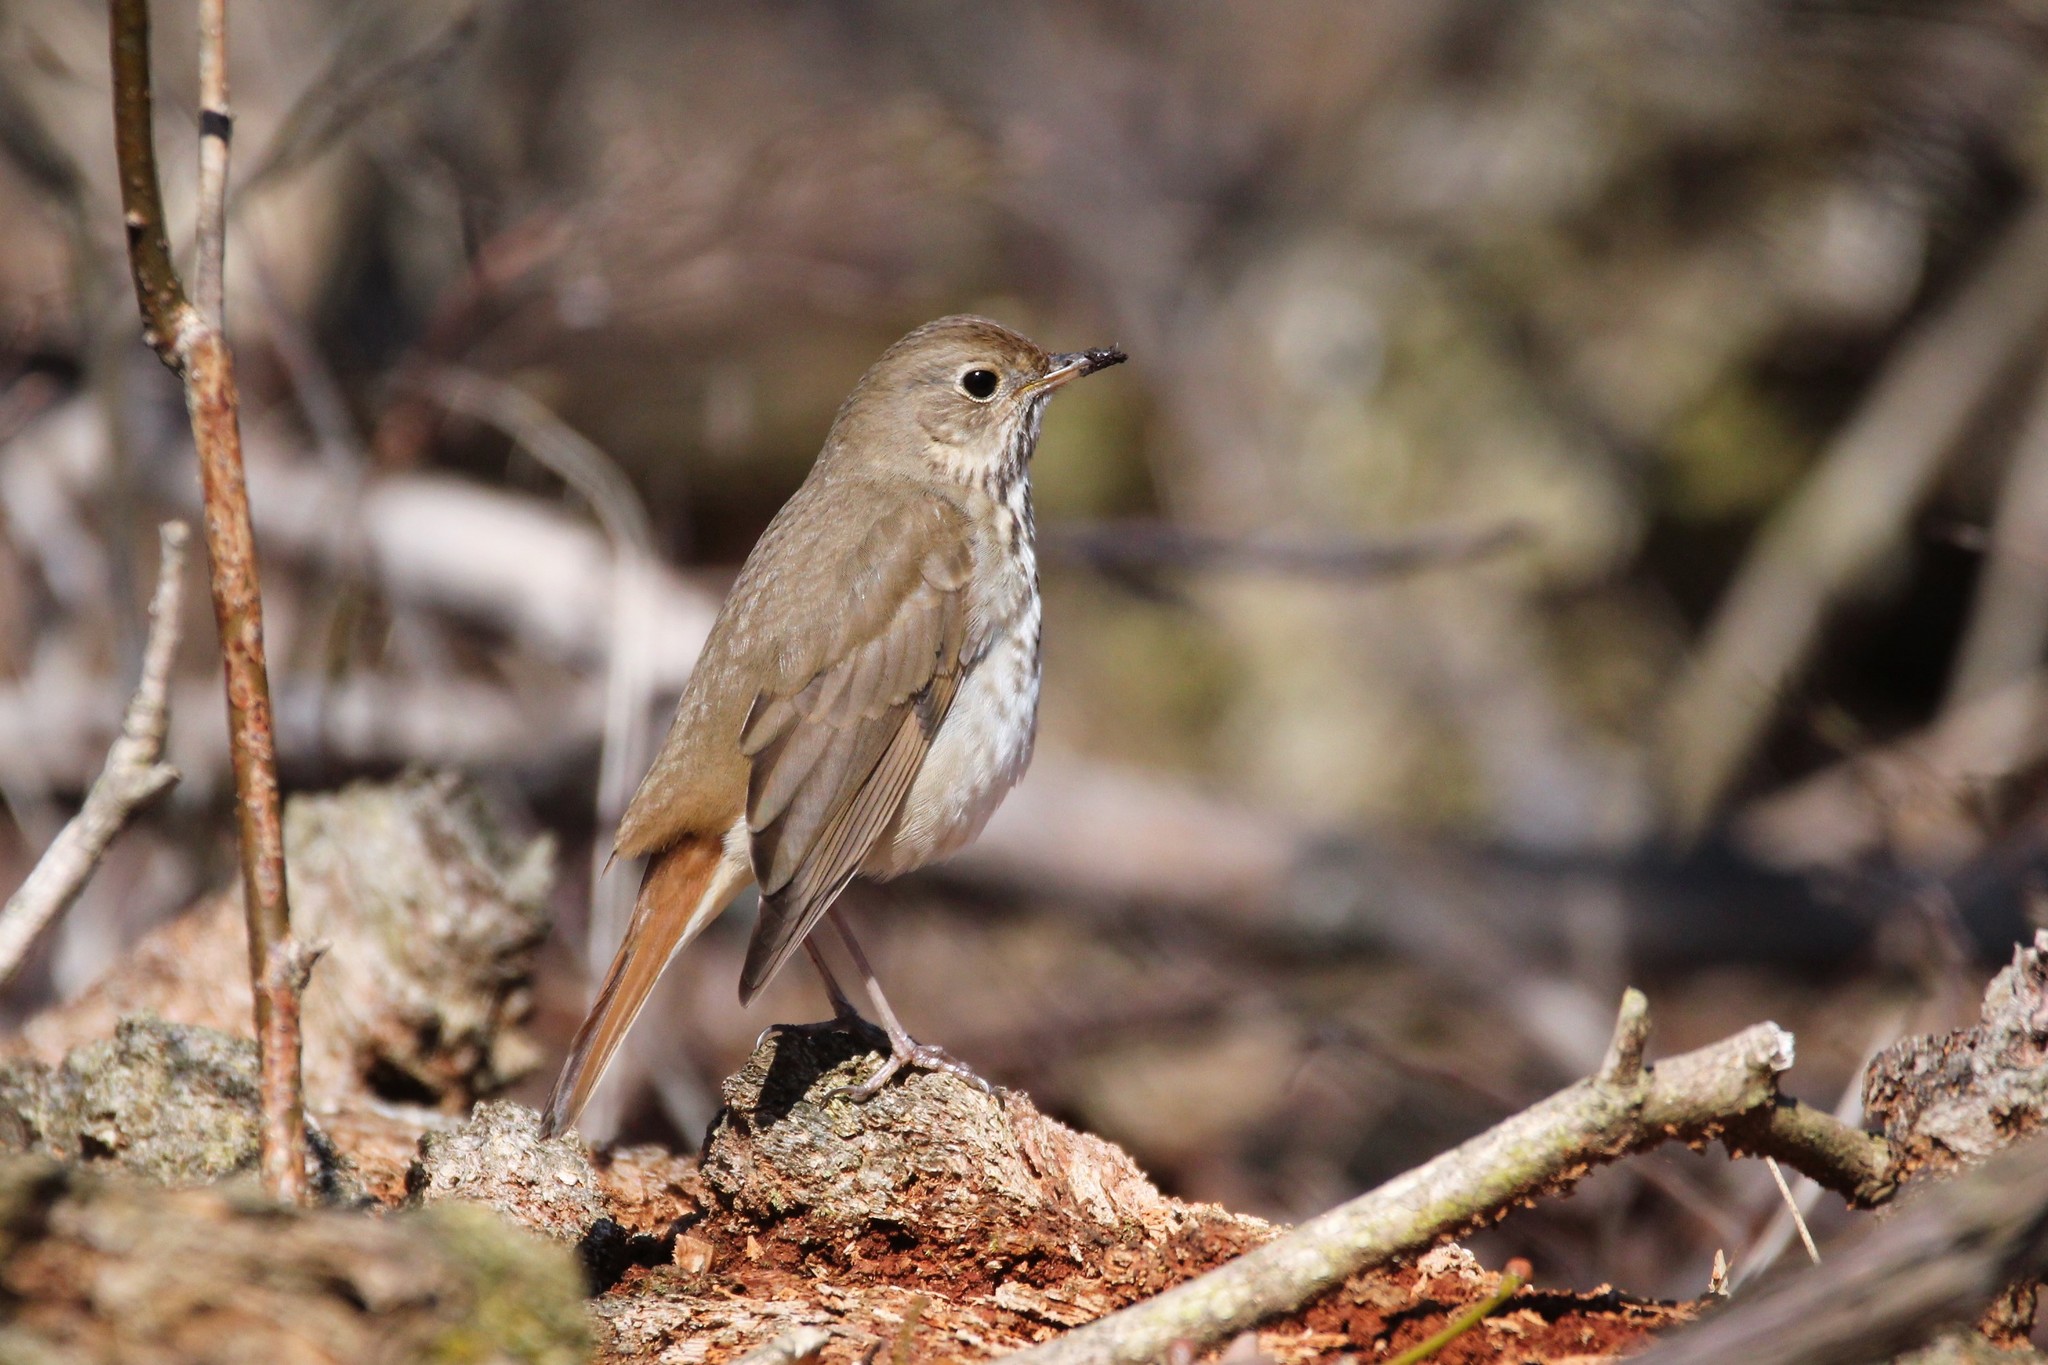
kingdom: Animalia
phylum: Chordata
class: Aves
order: Passeriformes
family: Turdidae
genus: Catharus
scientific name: Catharus guttatus
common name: Hermit thrush
